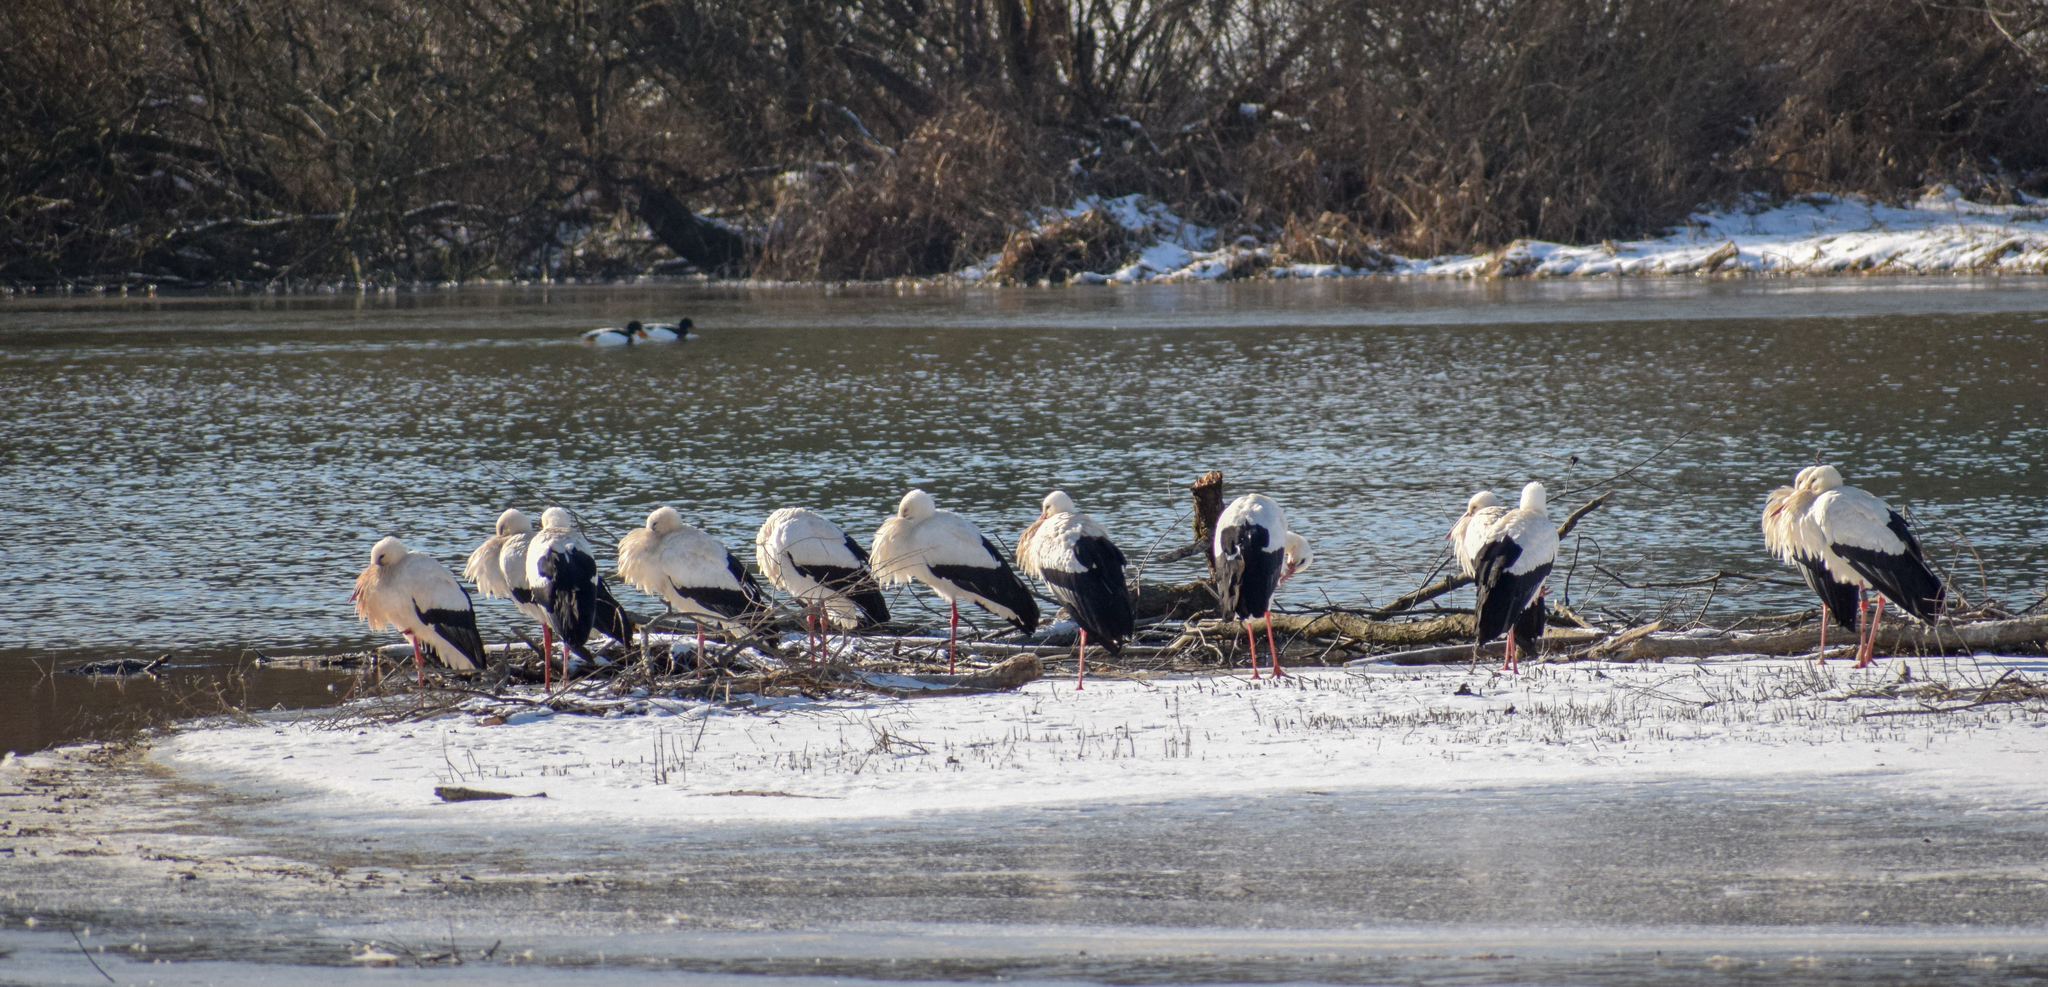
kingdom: Animalia
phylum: Chordata
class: Aves
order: Ciconiiformes
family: Ciconiidae
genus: Ciconia
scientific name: Ciconia ciconia
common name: White stork
